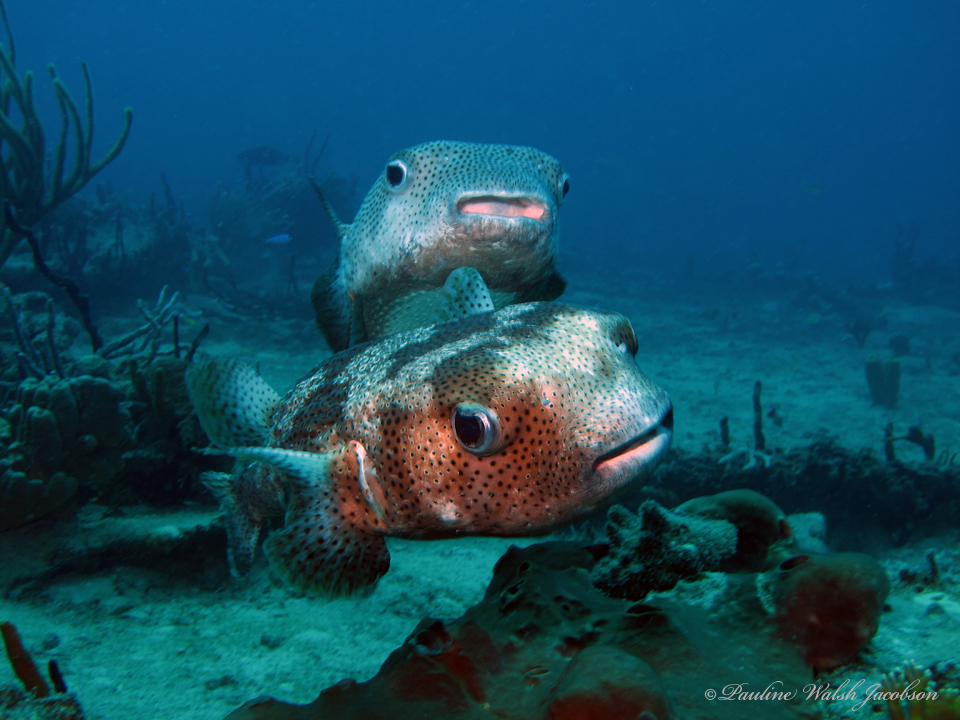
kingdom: Animalia
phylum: Chordata
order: Tetraodontiformes
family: Diodontidae
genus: Diodon
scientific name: Diodon hystrix
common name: Giant porcupinefish
